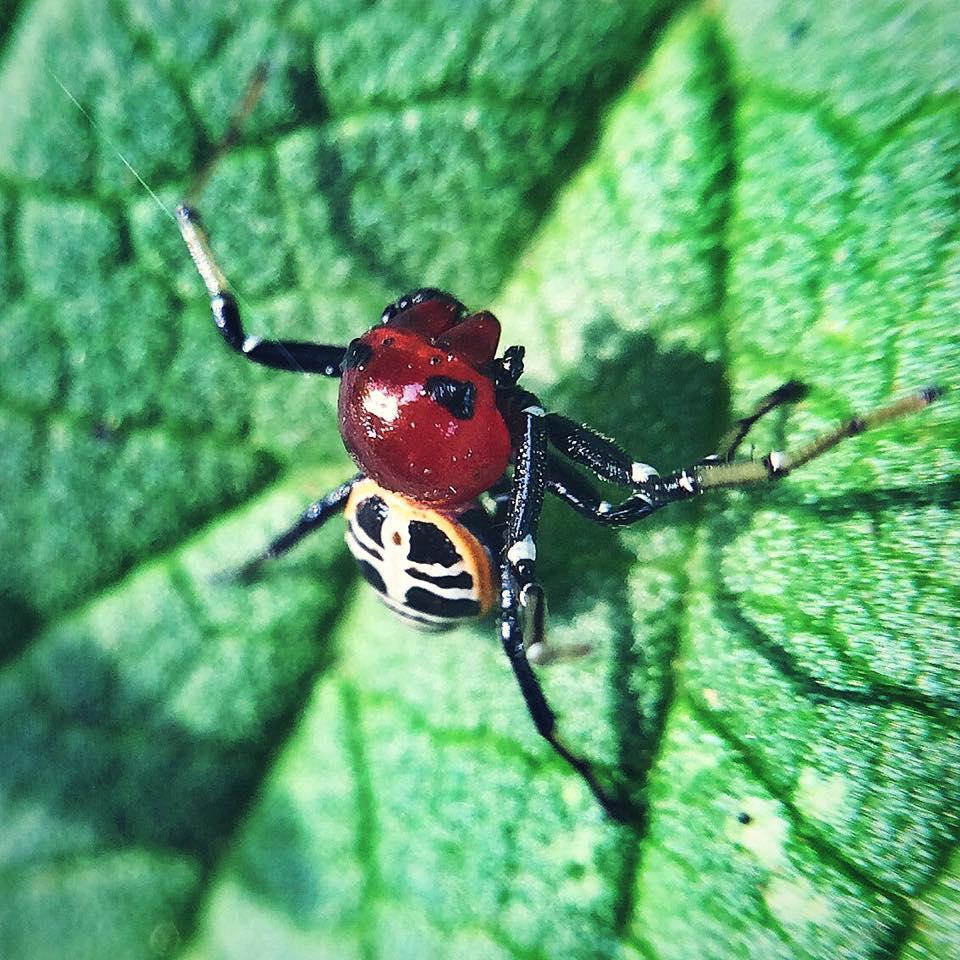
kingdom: Animalia
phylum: Arthropoda
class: Arachnida
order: Araneae
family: Thomisidae
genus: Camaricus
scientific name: Camaricus nigrotesselatus
